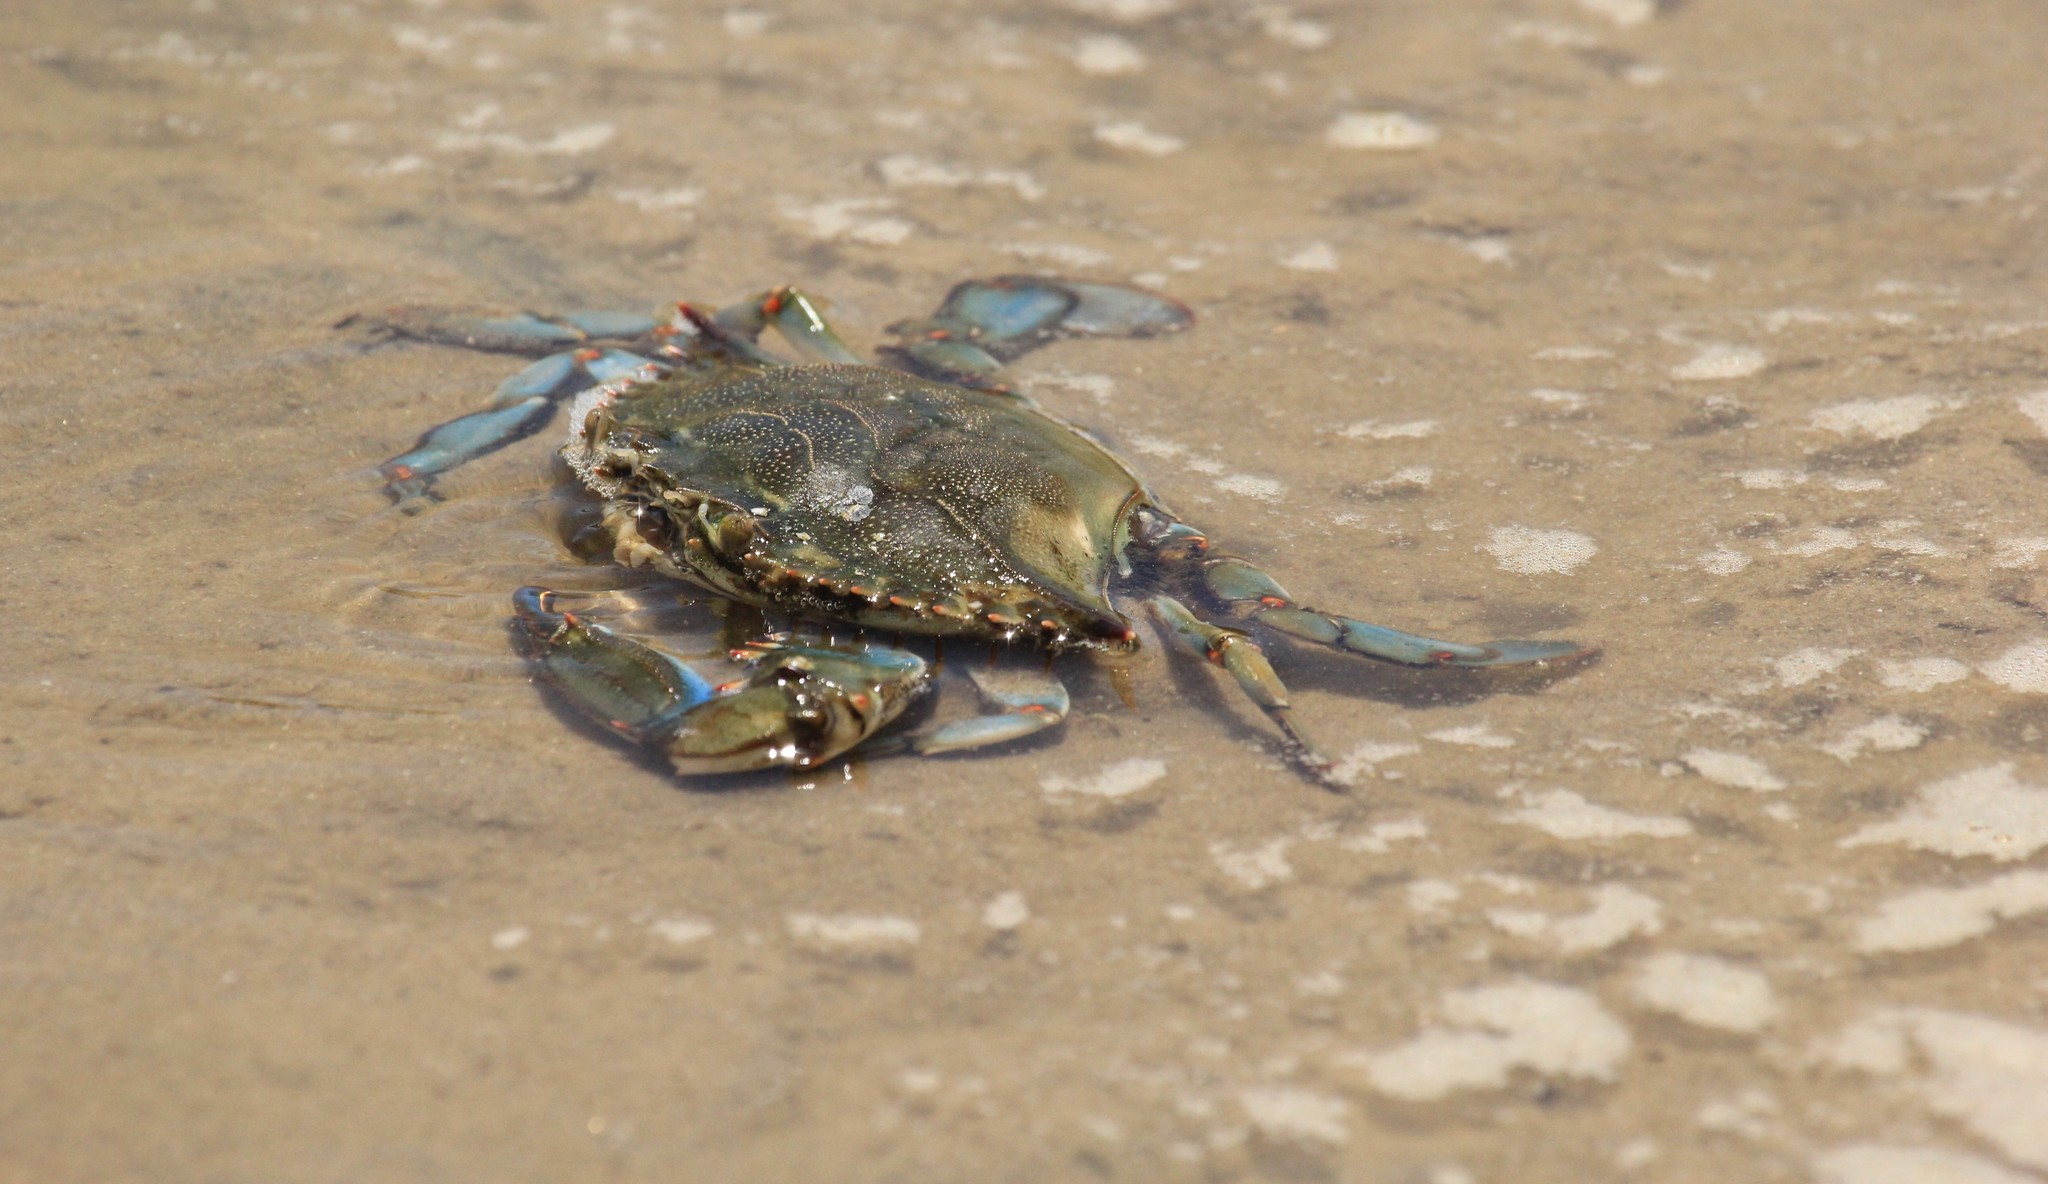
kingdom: Animalia
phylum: Arthropoda
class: Malacostraca
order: Decapoda
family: Portunidae
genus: Callinectes
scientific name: Callinectes sapidus
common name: Blue crab
